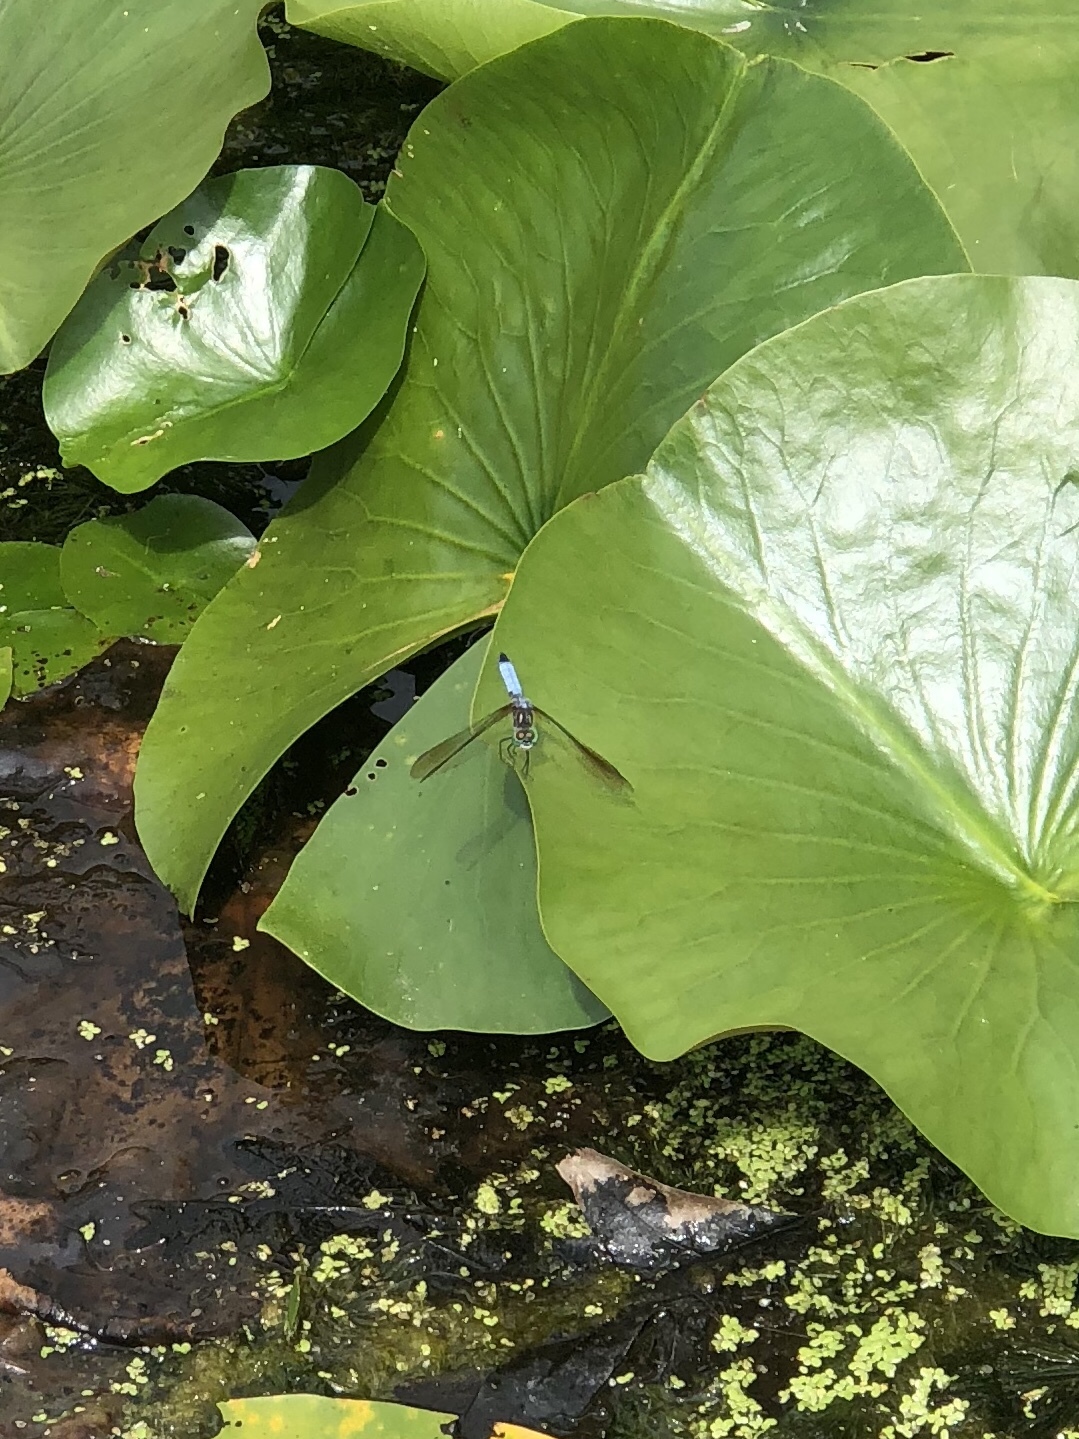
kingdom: Animalia
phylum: Arthropoda
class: Insecta
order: Odonata
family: Libellulidae
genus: Pachydiplax
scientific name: Pachydiplax longipennis
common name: Blue dasher
